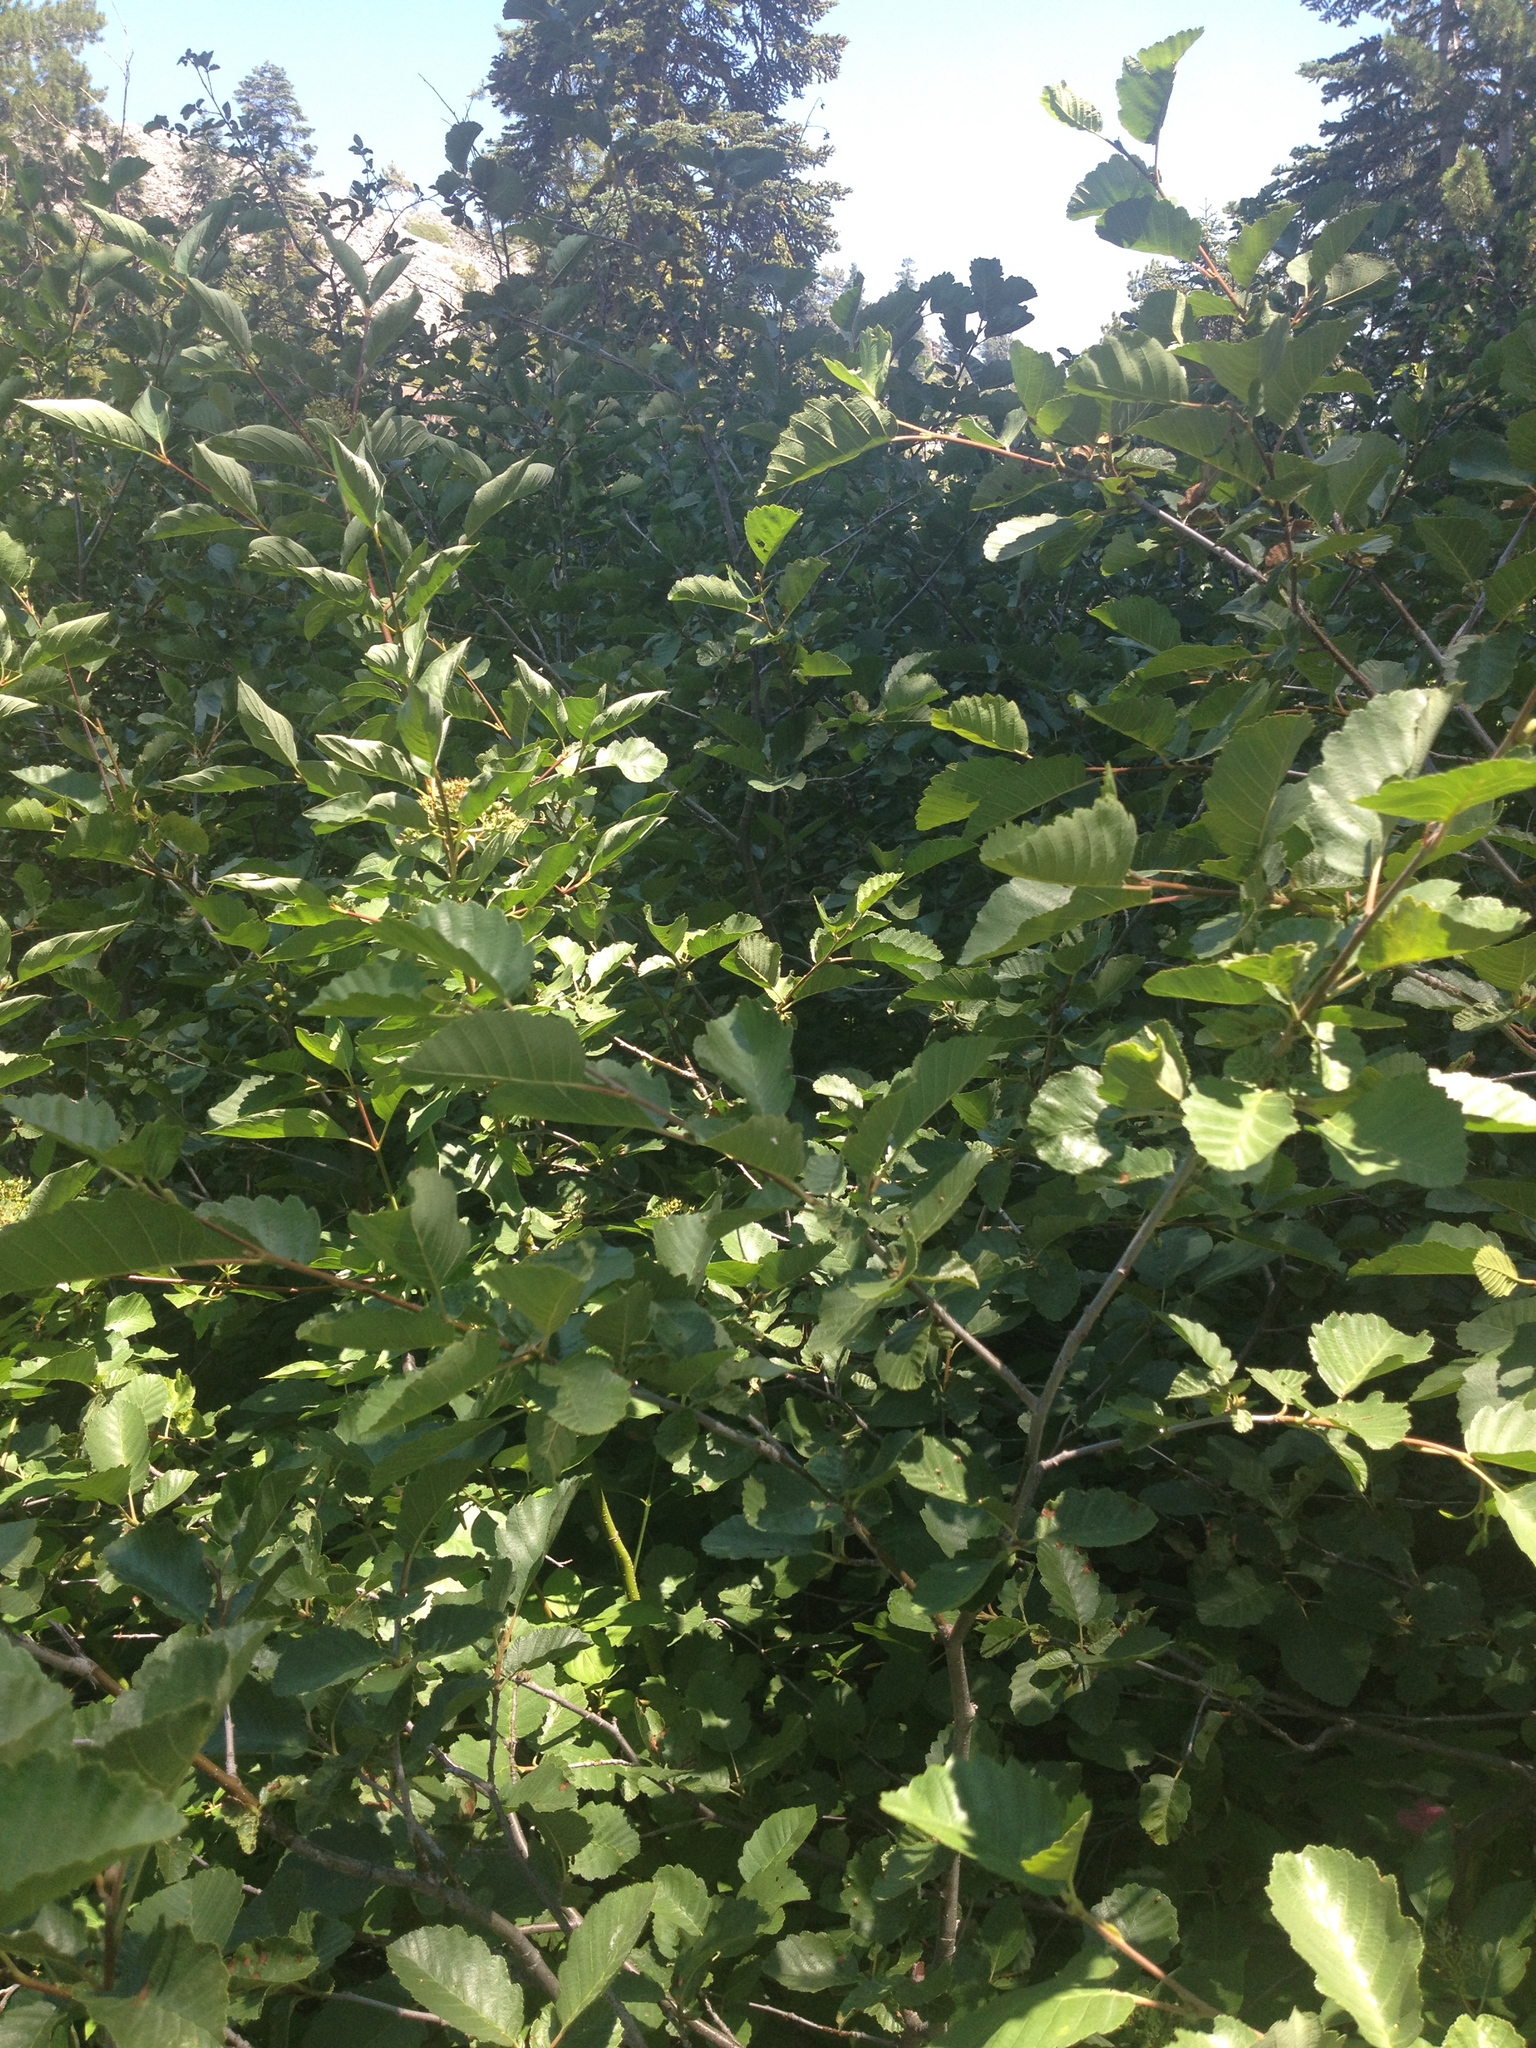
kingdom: Plantae
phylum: Tracheophyta
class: Magnoliopsida
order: Fagales
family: Betulaceae
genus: Alnus
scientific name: Alnus incana
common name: Grey alder
